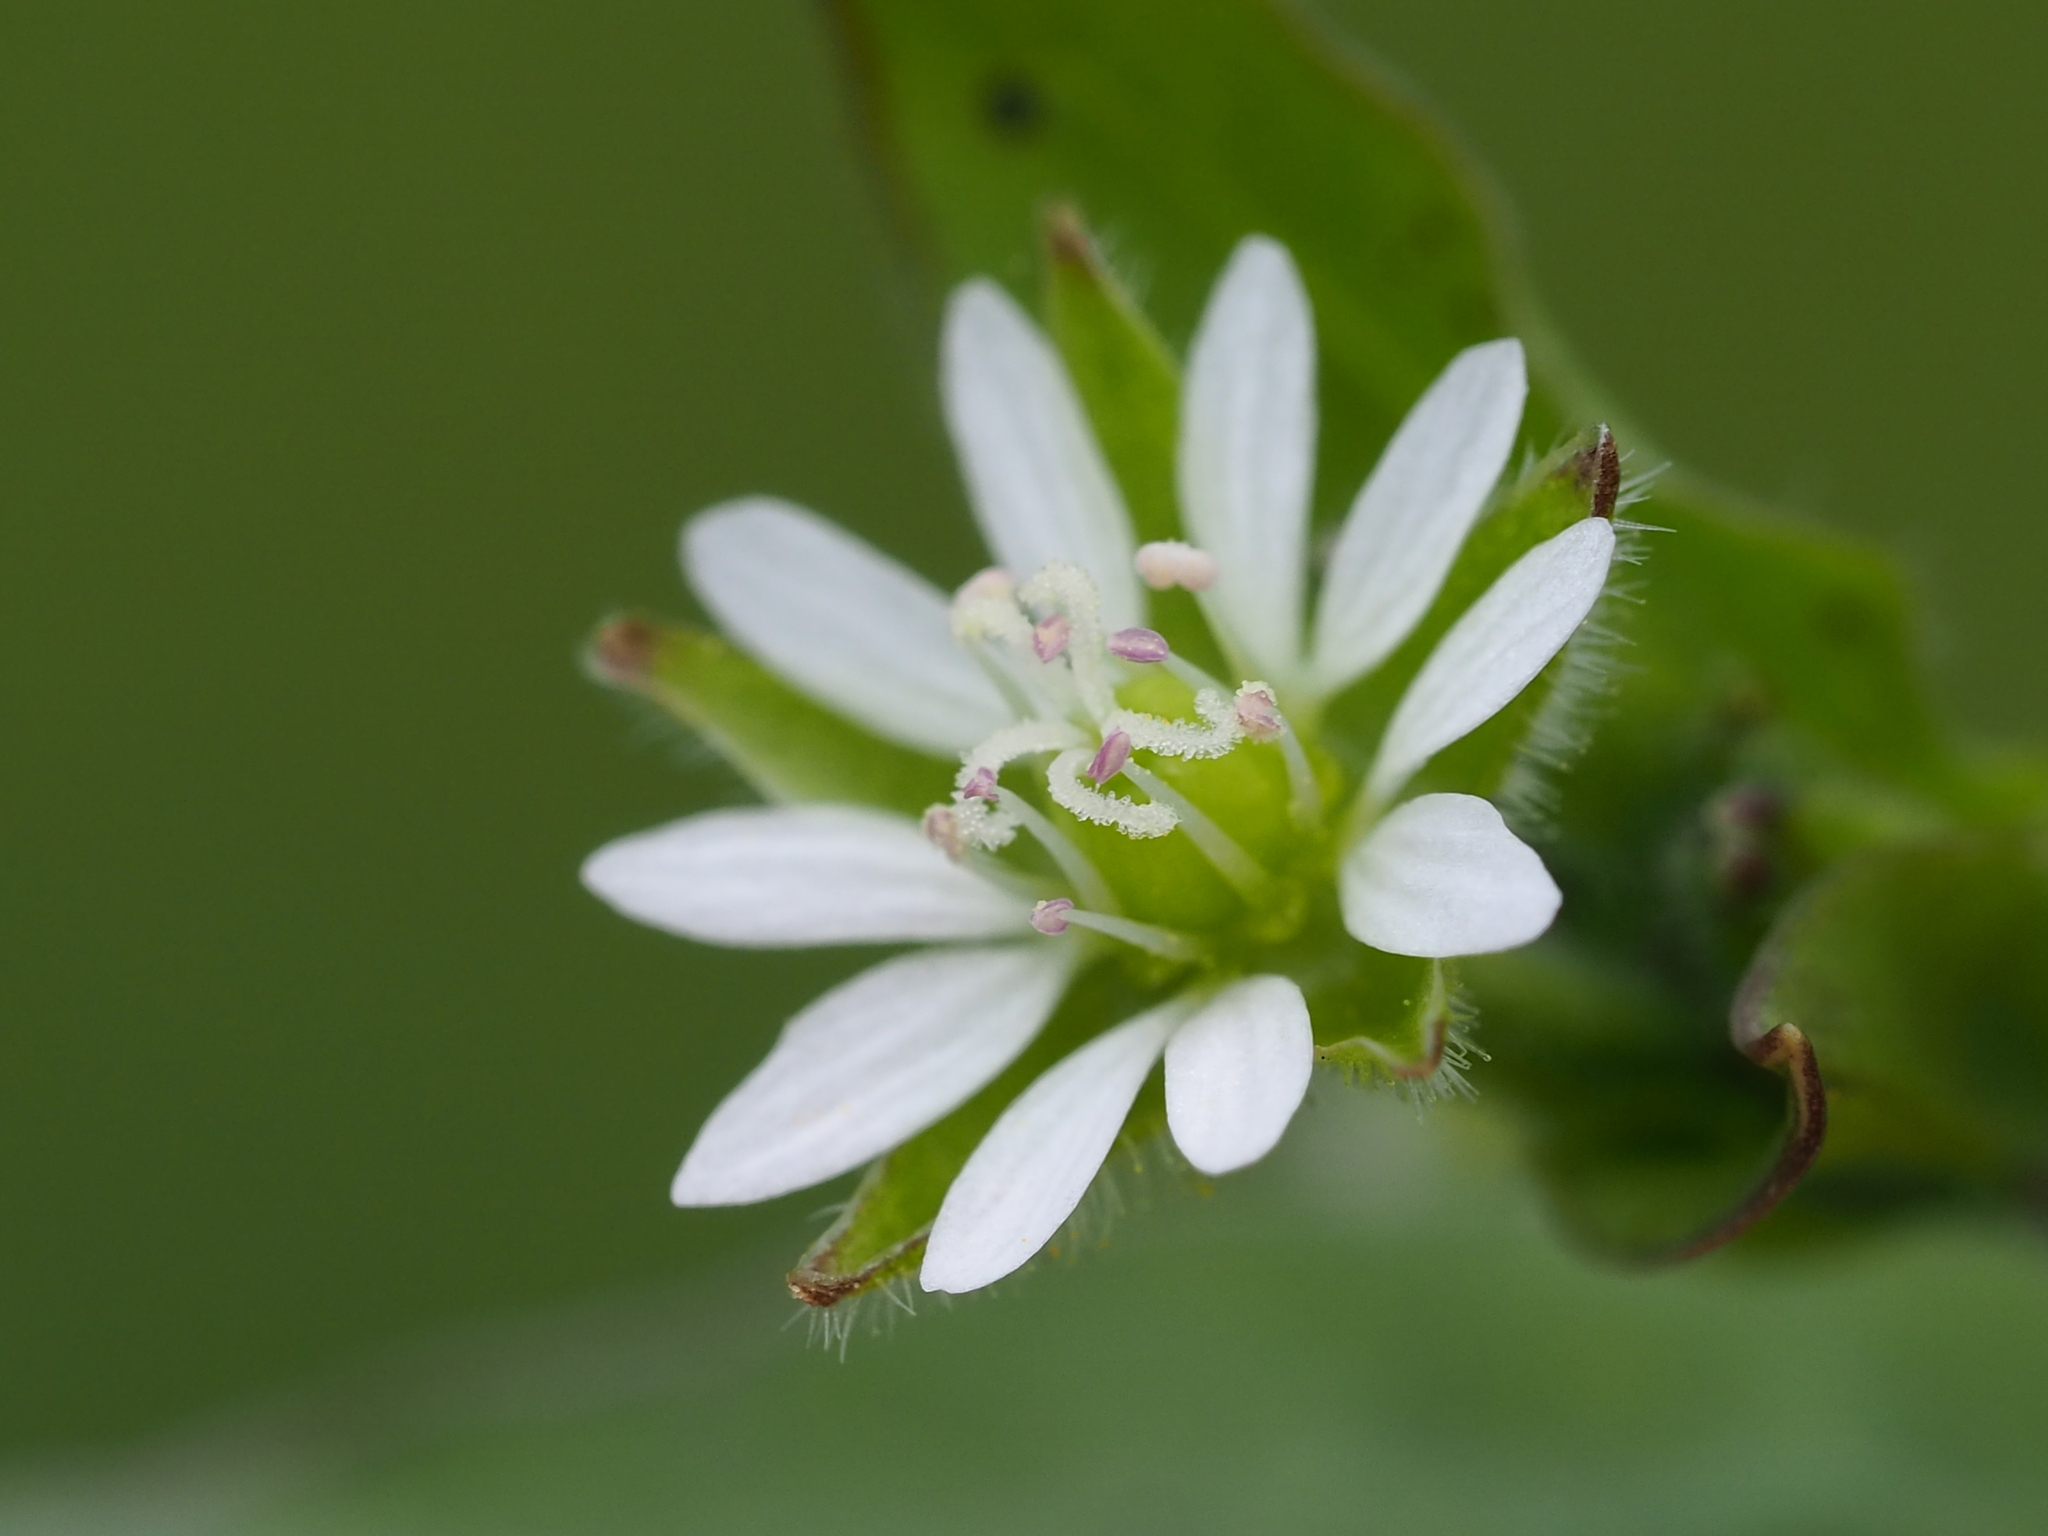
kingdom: Plantae
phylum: Tracheophyta
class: Magnoliopsida
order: Caryophyllales
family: Caryophyllaceae
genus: Stellaria
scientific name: Stellaria aquatica
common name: Water chickweed
